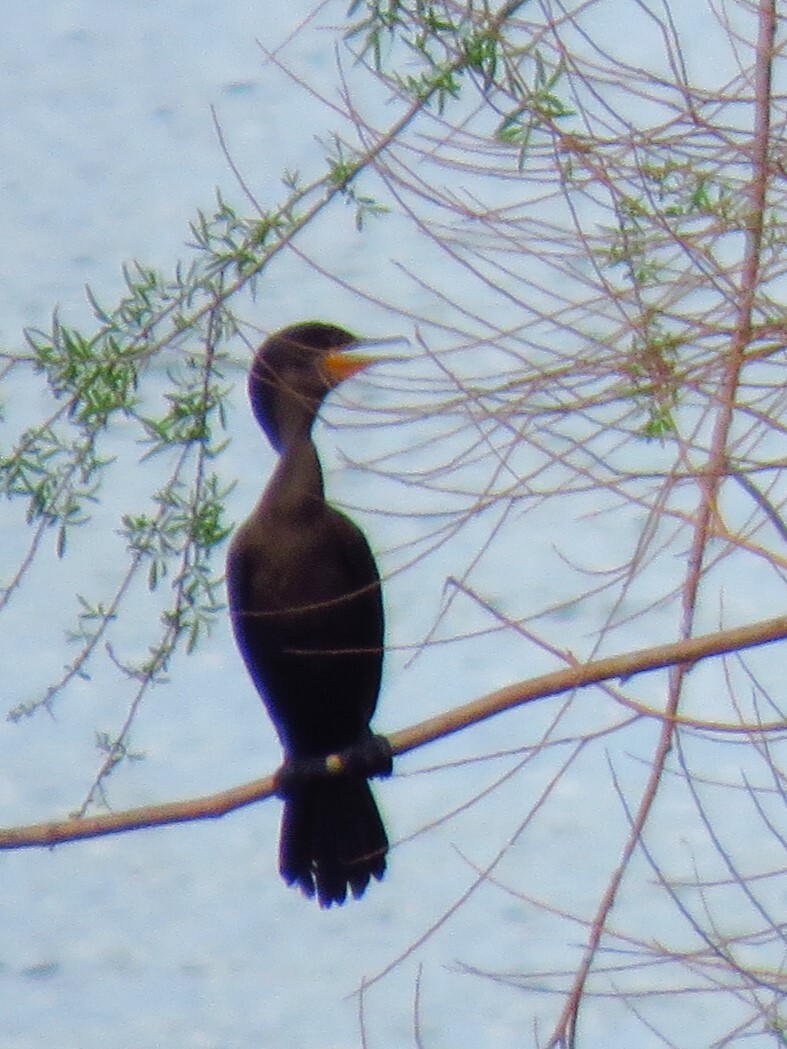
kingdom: Animalia
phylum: Chordata
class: Aves
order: Suliformes
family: Phalacrocoracidae
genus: Phalacrocorax
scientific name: Phalacrocorax auritus
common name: Double-crested cormorant
